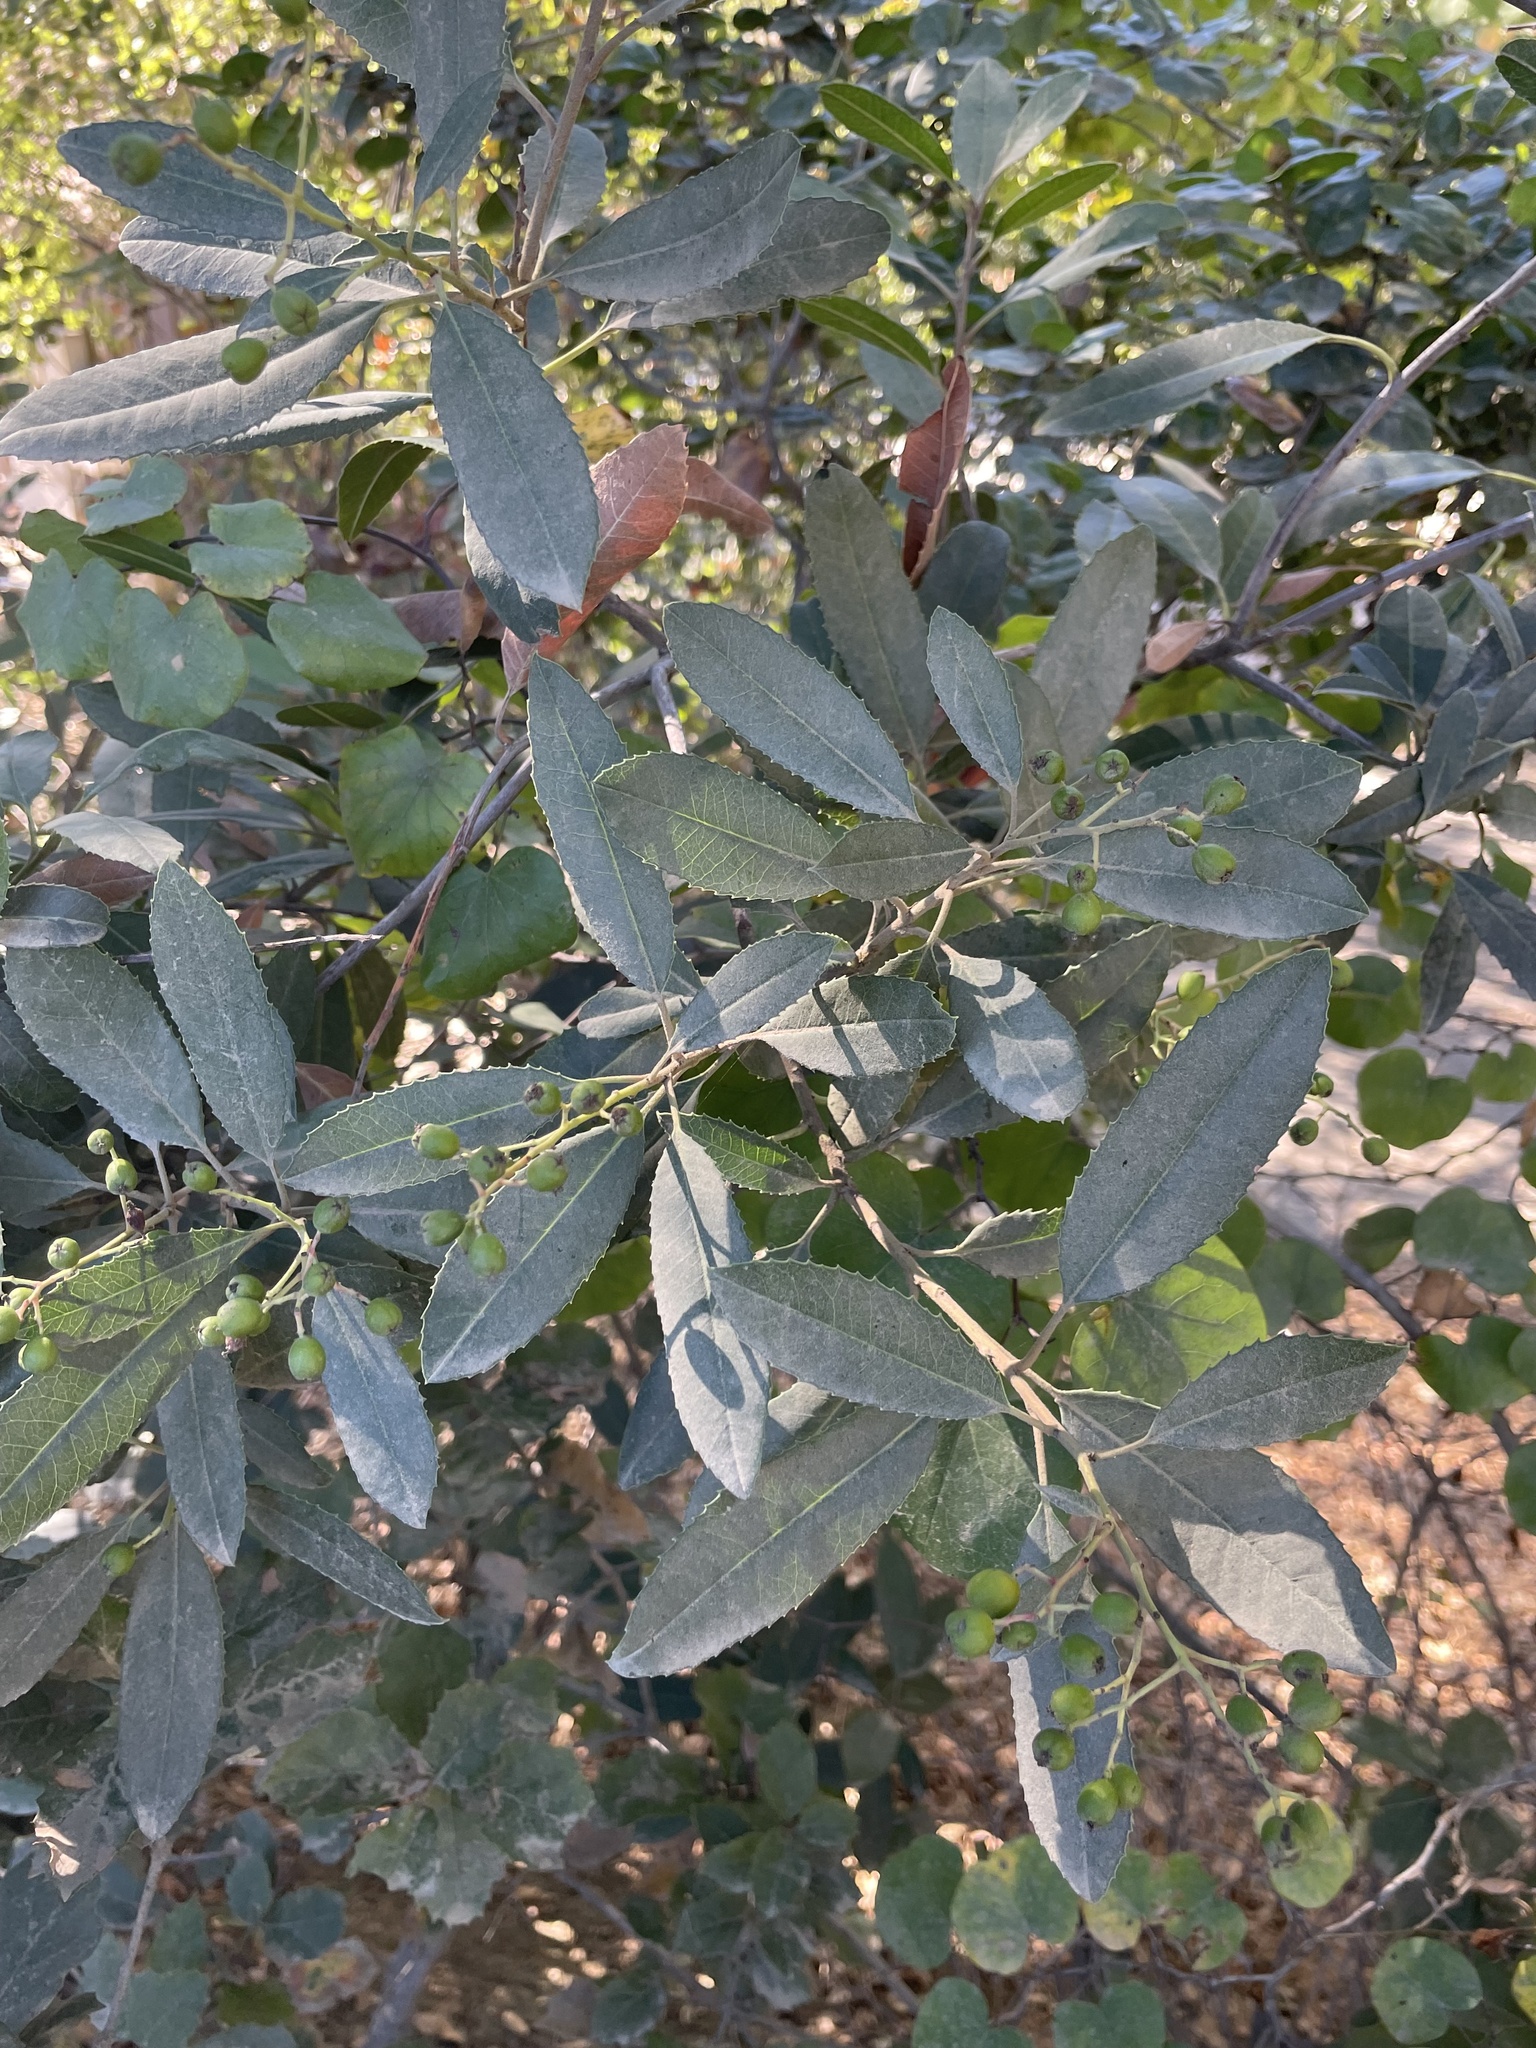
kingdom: Plantae
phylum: Tracheophyta
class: Magnoliopsida
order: Rosales
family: Rosaceae
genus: Heteromeles
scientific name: Heteromeles arbutifolia
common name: California-holly
